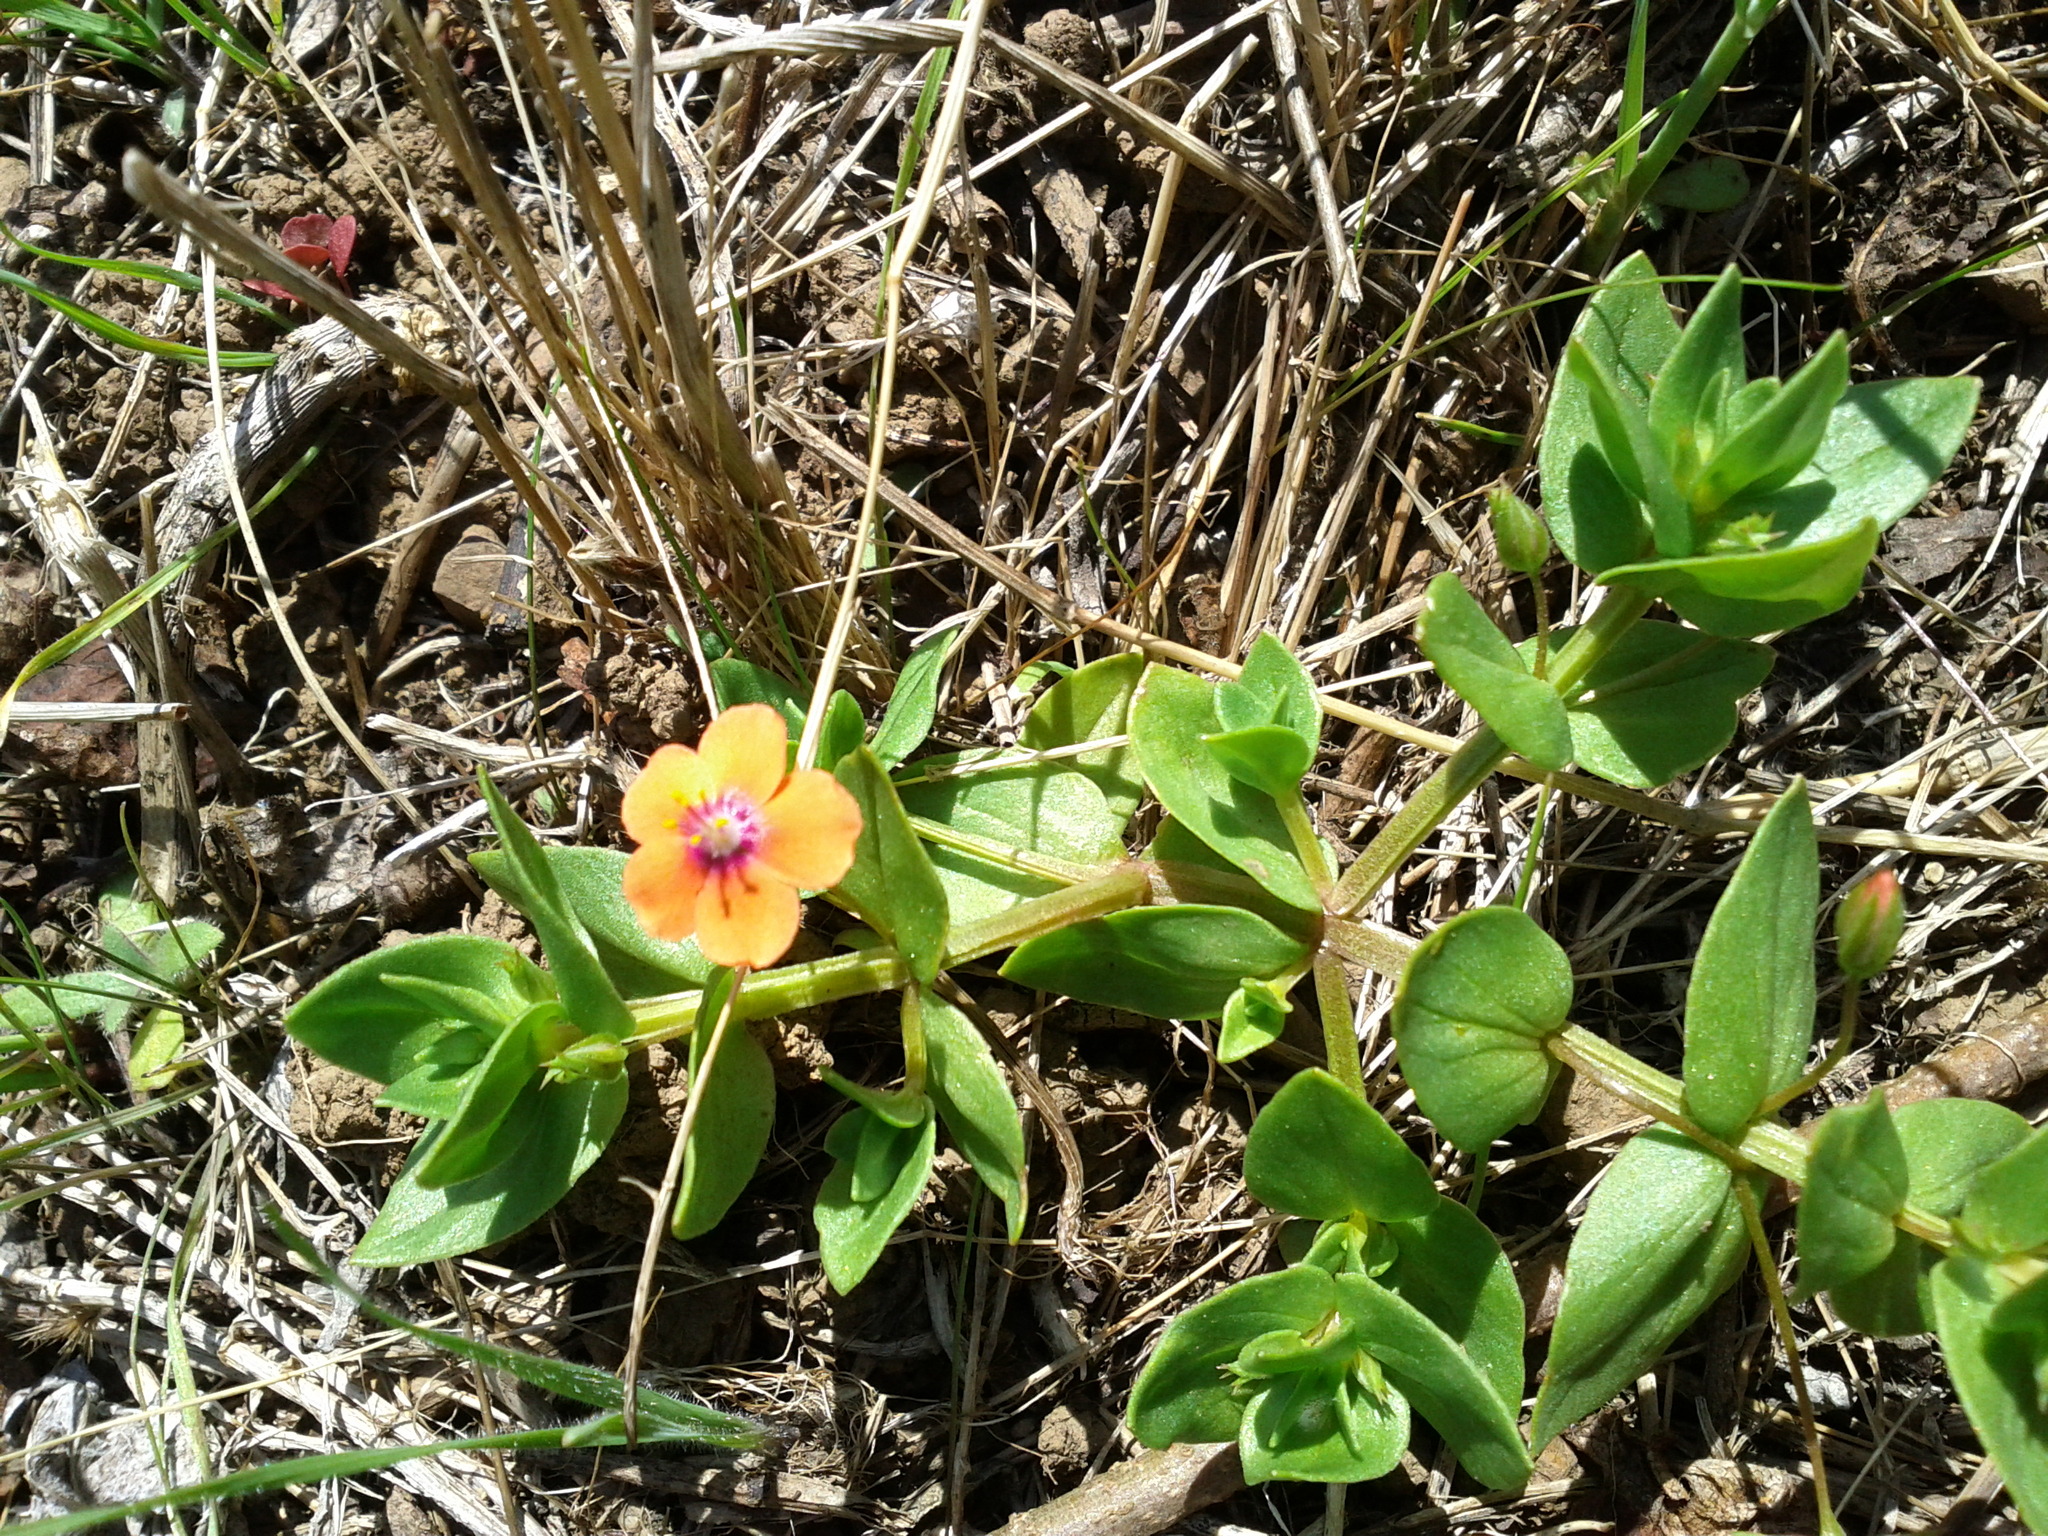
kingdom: Plantae
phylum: Tracheophyta
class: Magnoliopsida
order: Ericales
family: Primulaceae
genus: Lysimachia
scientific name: Lysimachia arvensis
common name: Scarlet pimpernel
